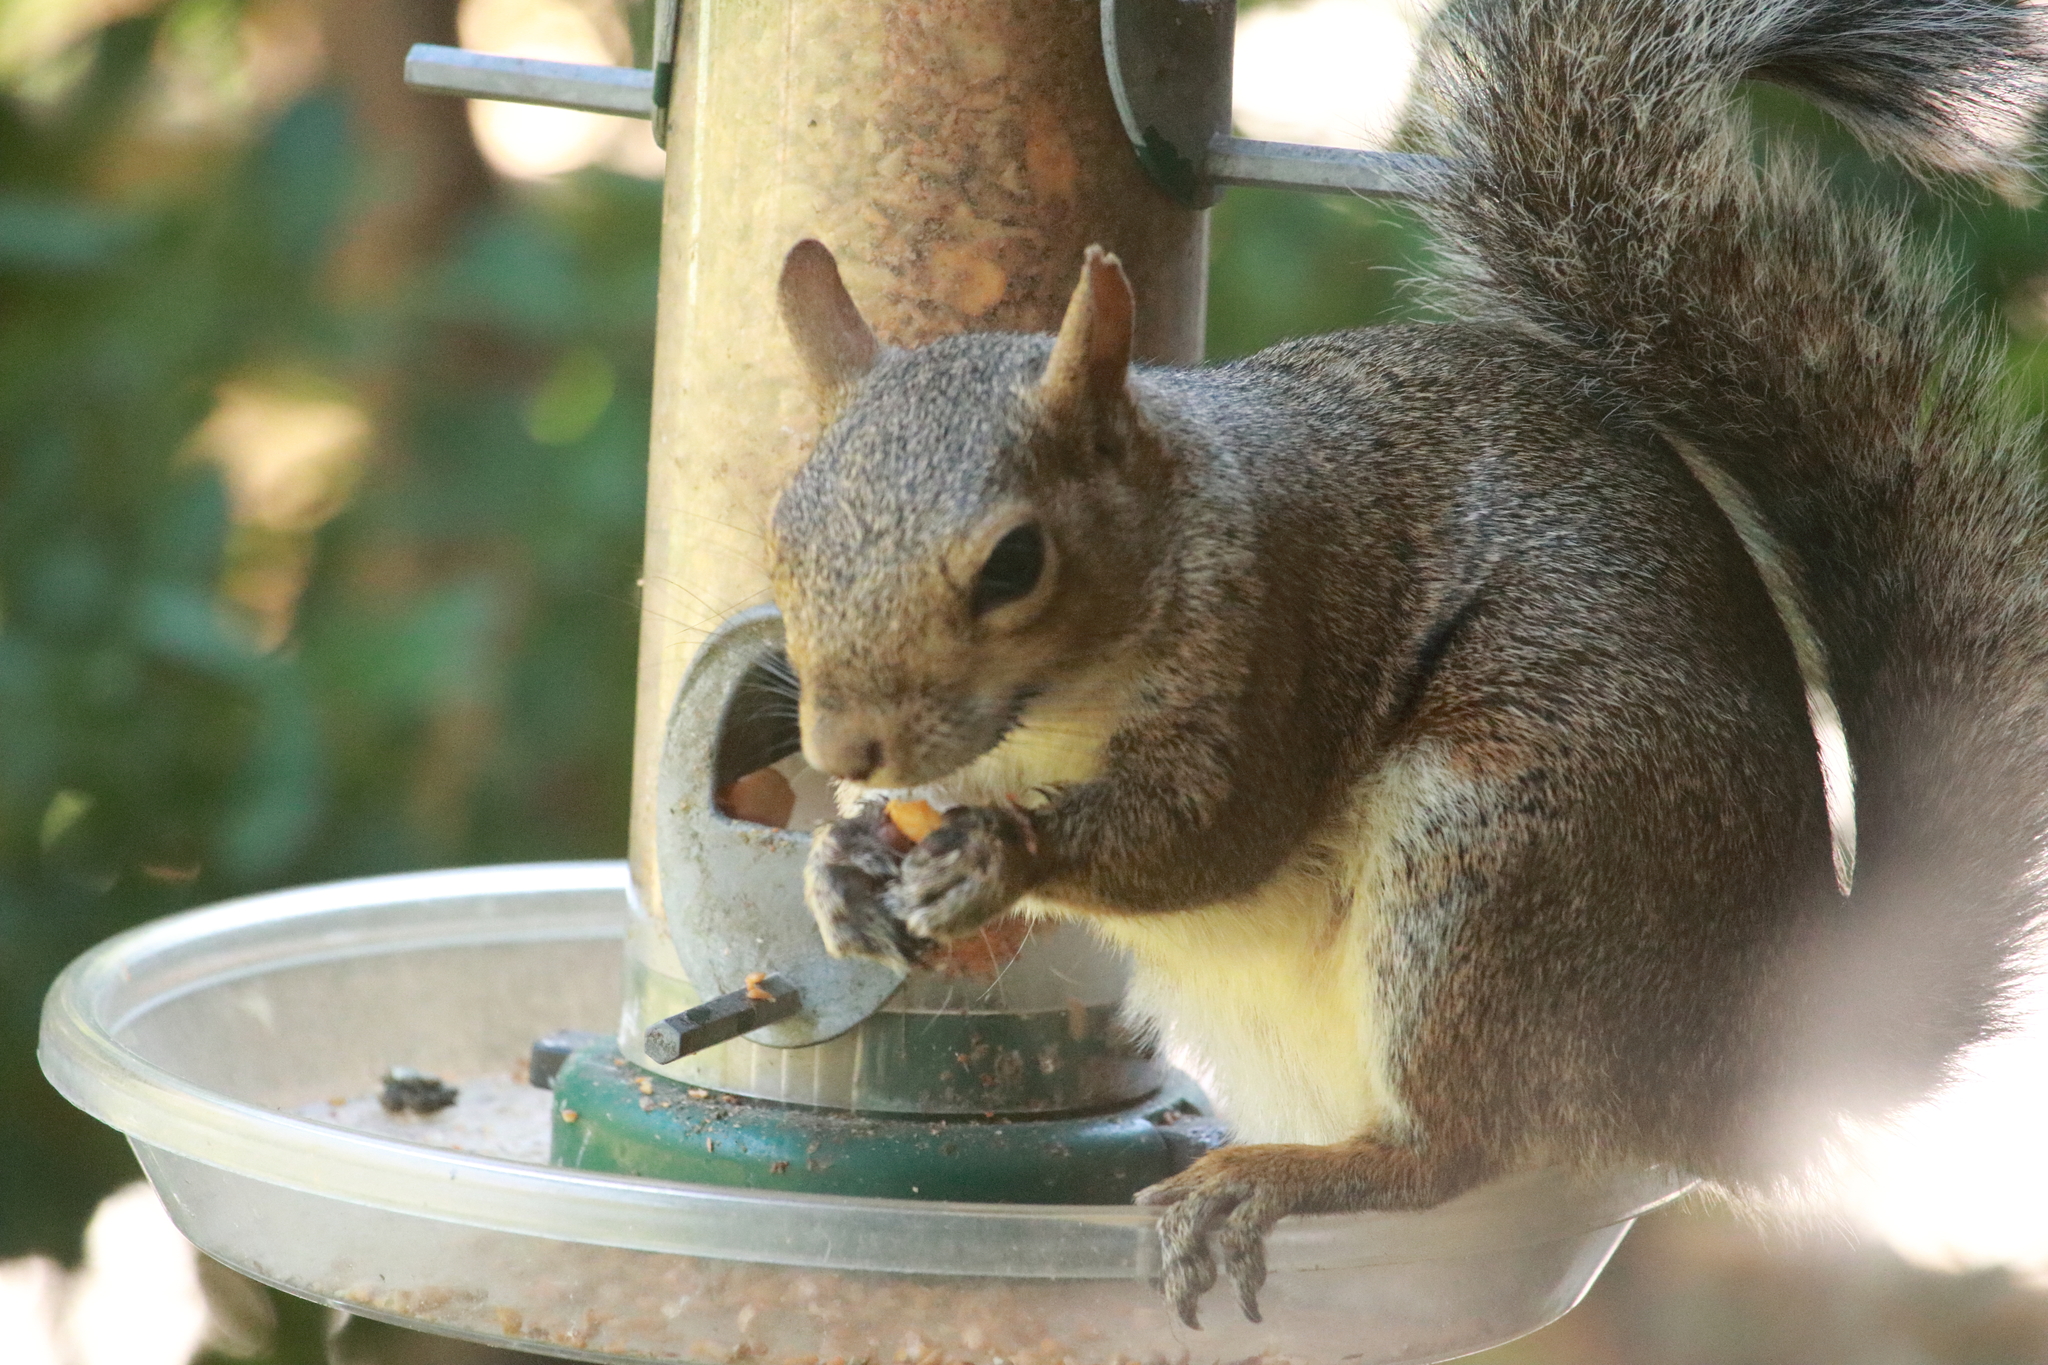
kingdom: Animalia
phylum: Chordata
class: Mammalia
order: Rodentia
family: Sciuridae
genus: Sciurus
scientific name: Sciurus carolinensis
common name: Eastern gray squirrel
